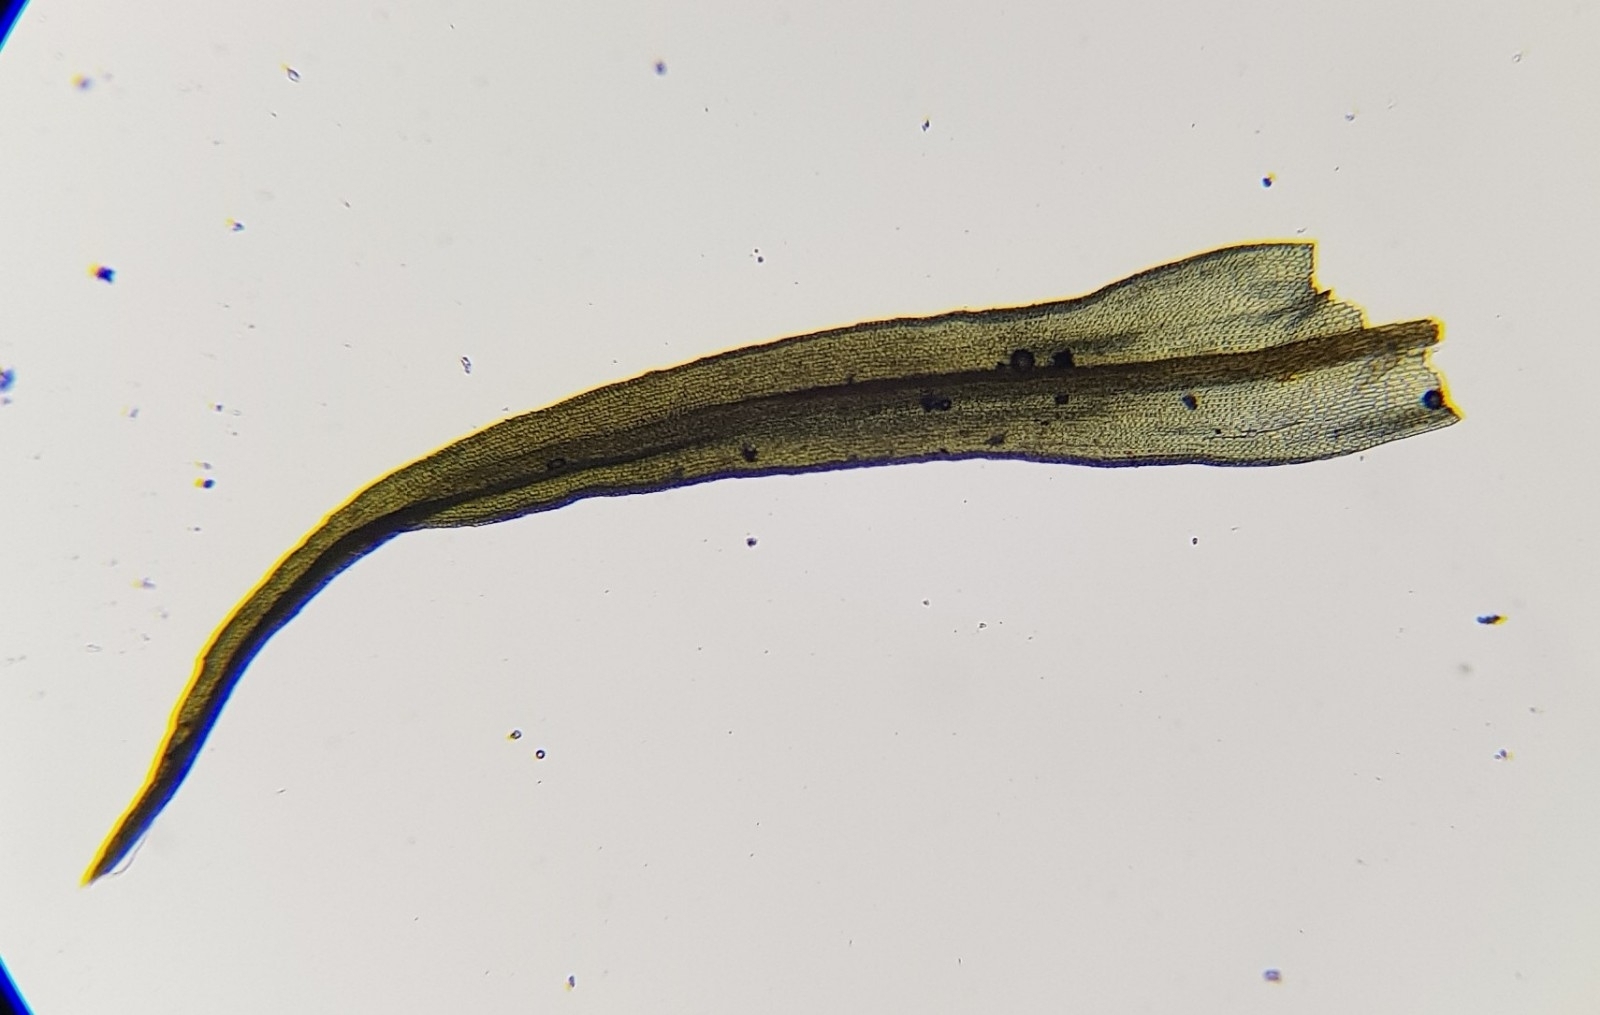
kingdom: Plantae
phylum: Bryophyta
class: Bryopsida
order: Pottiales
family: Pottiaceae
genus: Vinealobryum
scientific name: Vinealobryum insulanum
